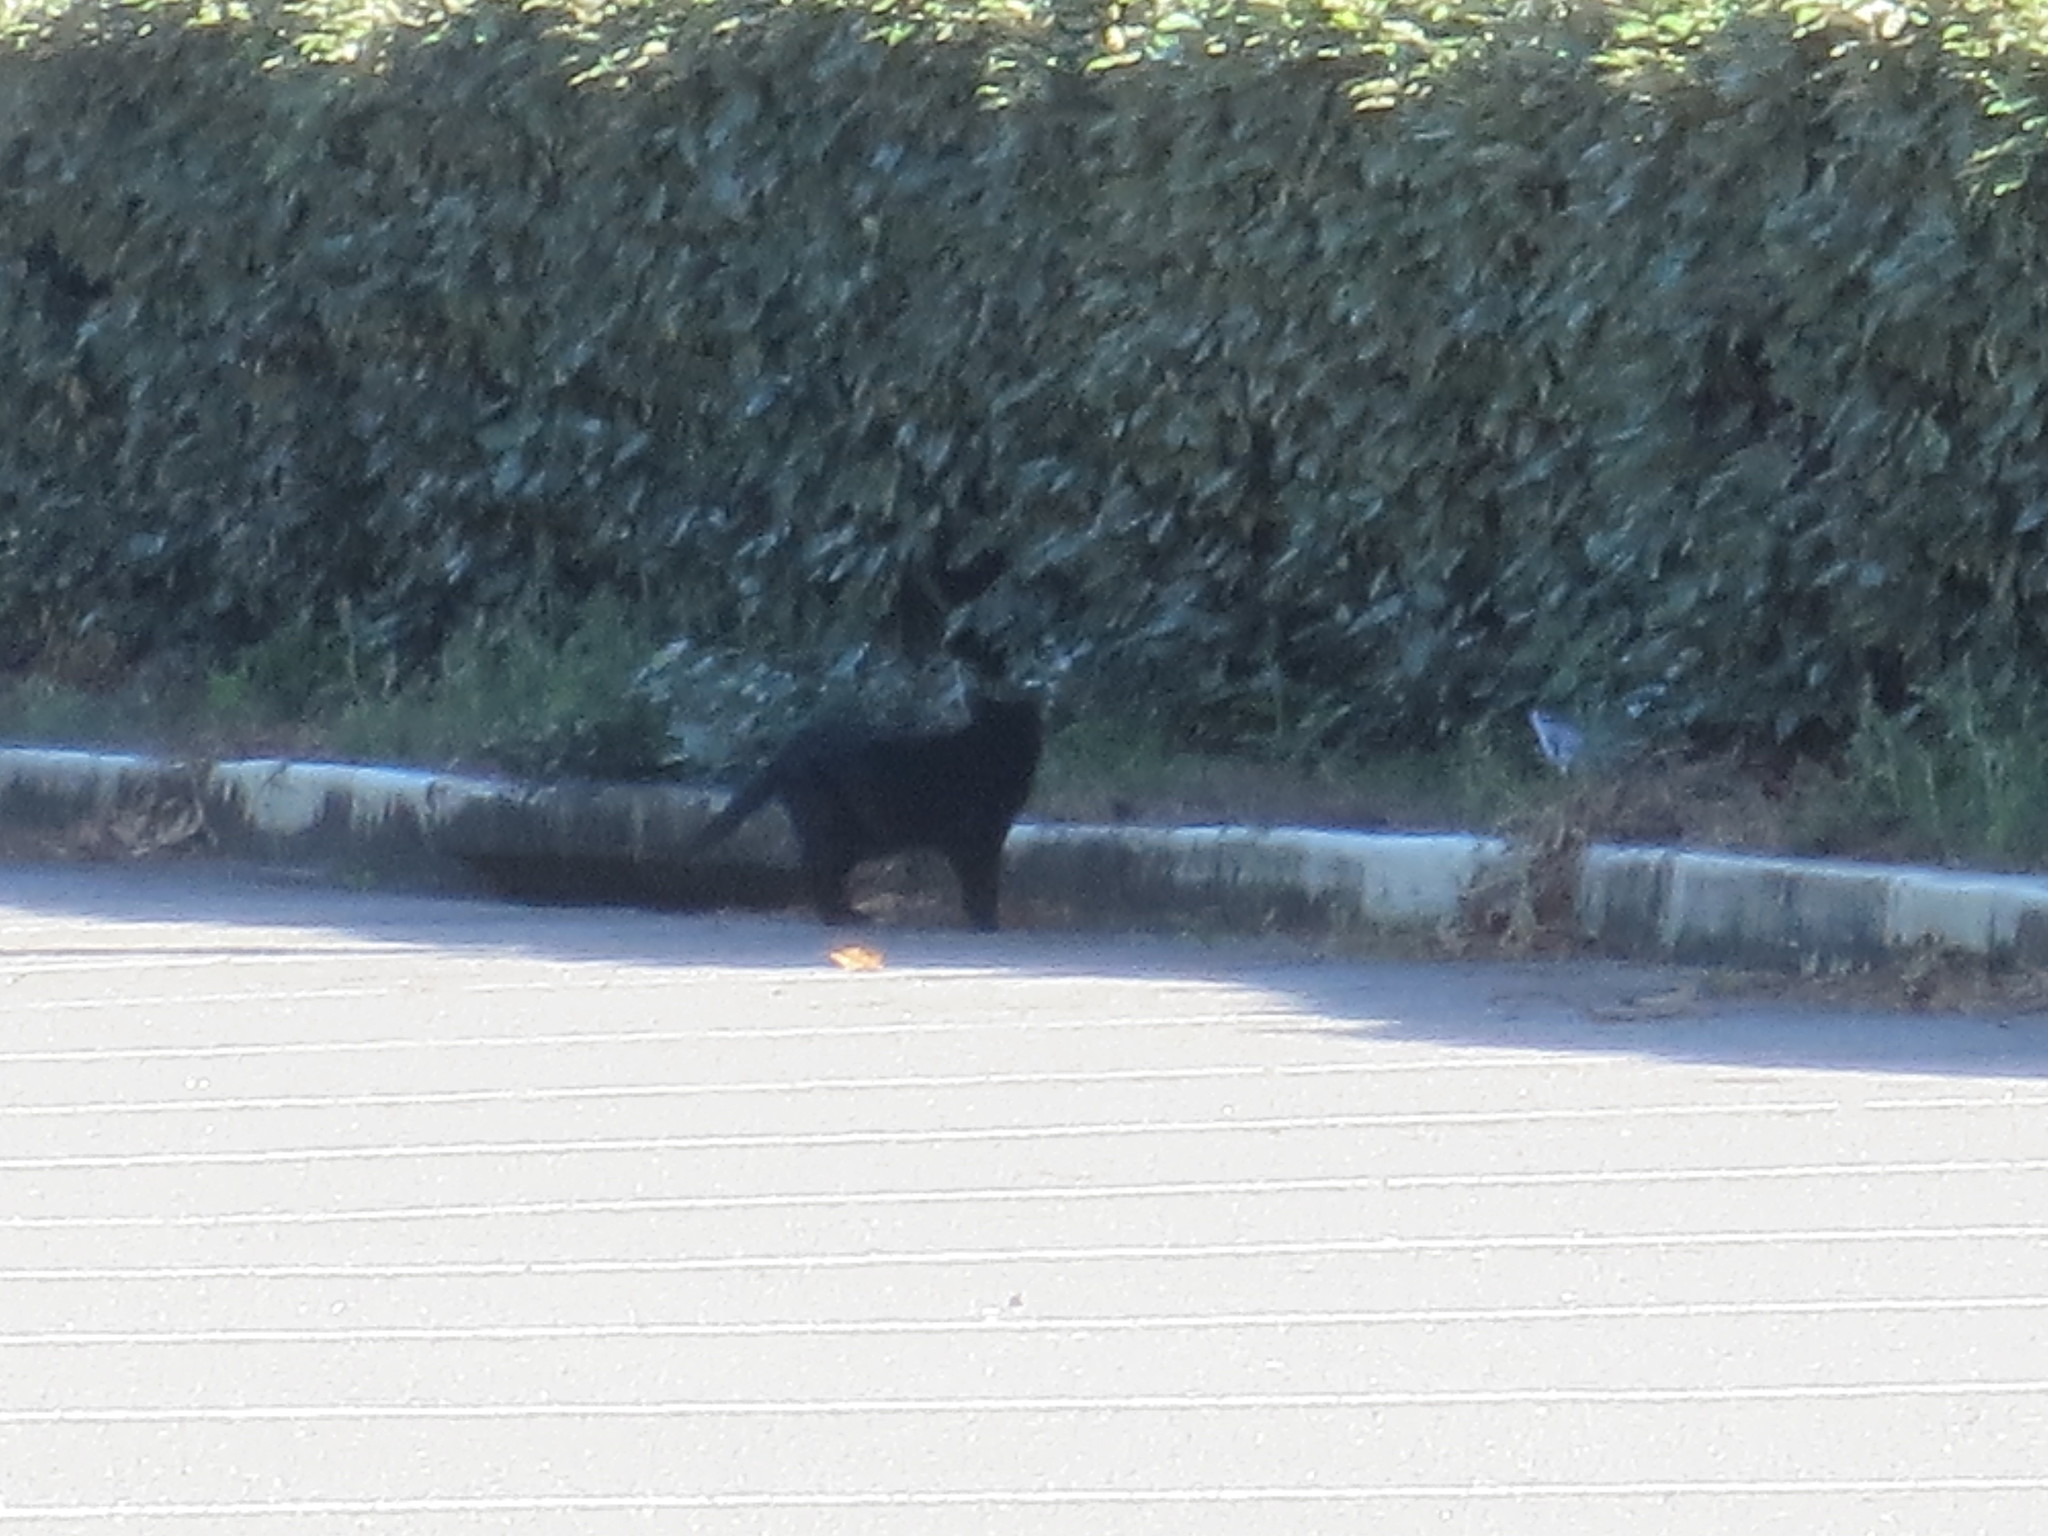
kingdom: Animalia
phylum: Chordata
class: Mammalia
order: Carnivora
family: Felidae
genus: Felis
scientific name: Felis catus
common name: Domestic cat
